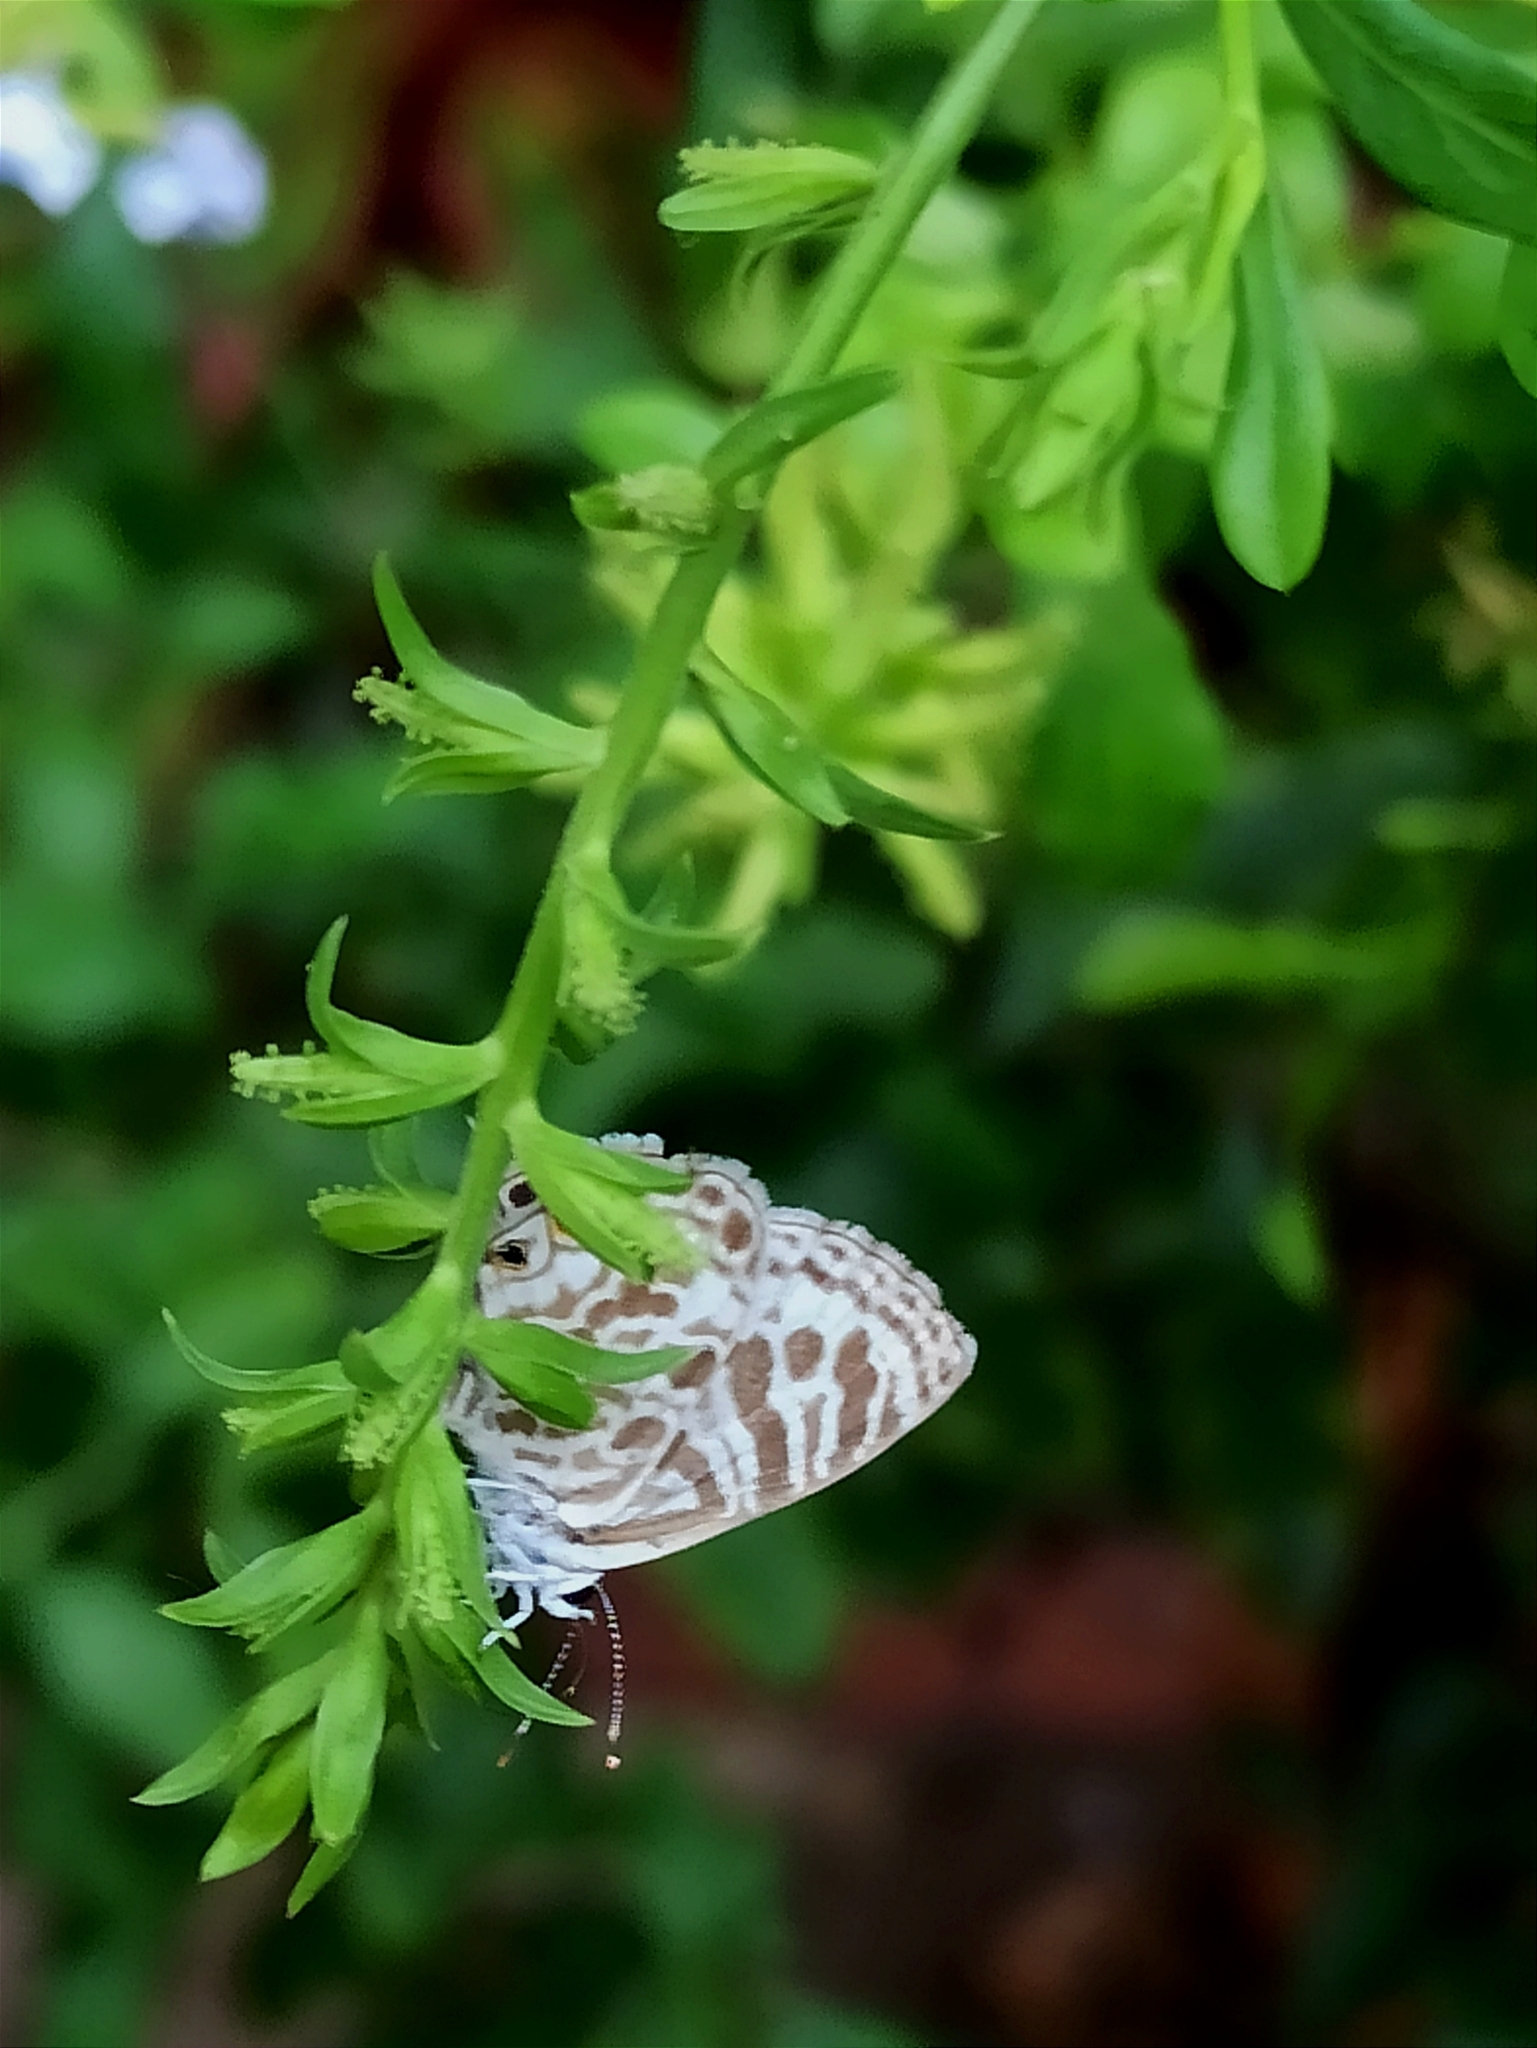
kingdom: Animalia
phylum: Arthropoda
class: Insecta
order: Lepidoptera
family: Lycaenidae
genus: Leptotes
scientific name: Leptotes plinius
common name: Zebra blue
